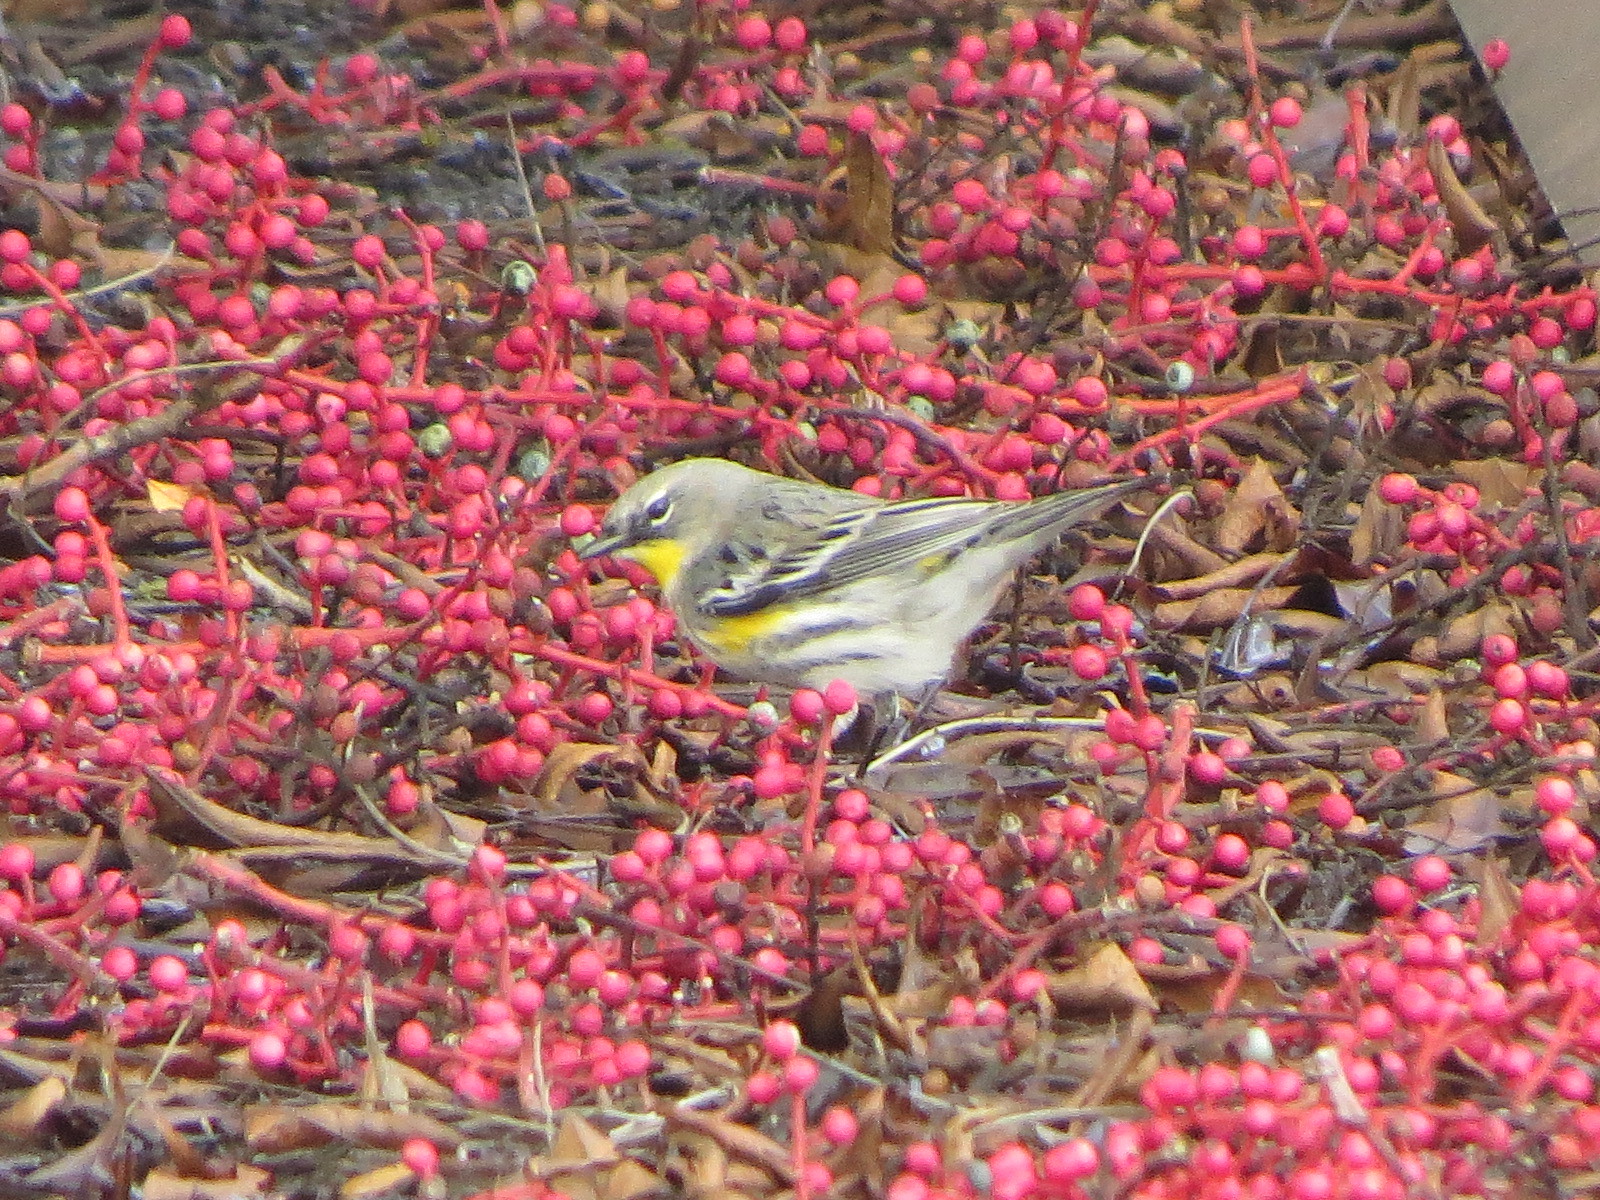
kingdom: Animalia
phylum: Chordata
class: Aves
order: Passeriformes
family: Parulidae
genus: Setophaga
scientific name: Setophaga auduboni
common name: Audubon's warbler
